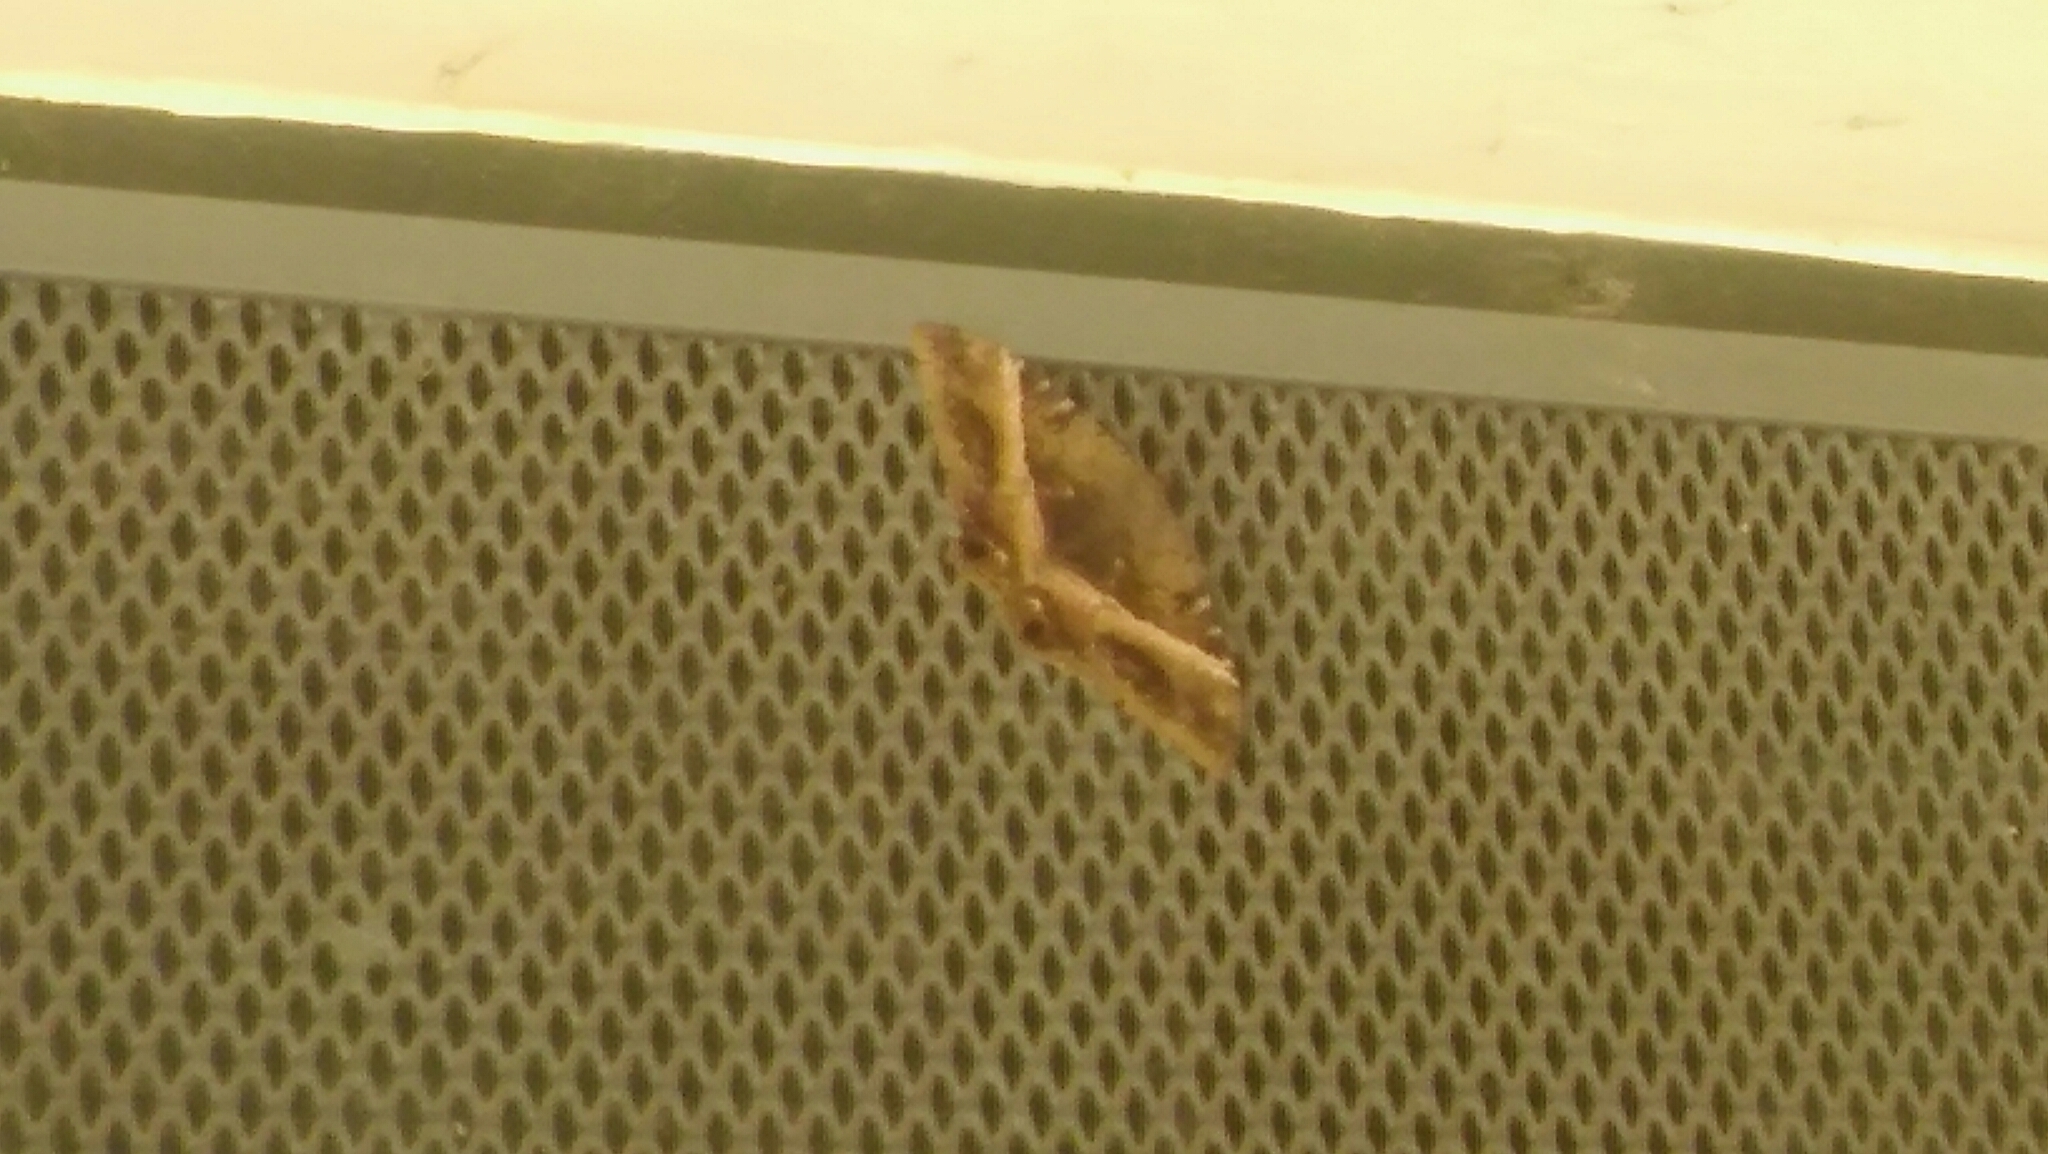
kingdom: Animalia
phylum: Arthropoda
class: Insecta
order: Lepidoptera
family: Erebidae
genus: Ascalapha
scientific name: Ascalapha odorata
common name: Black witch
